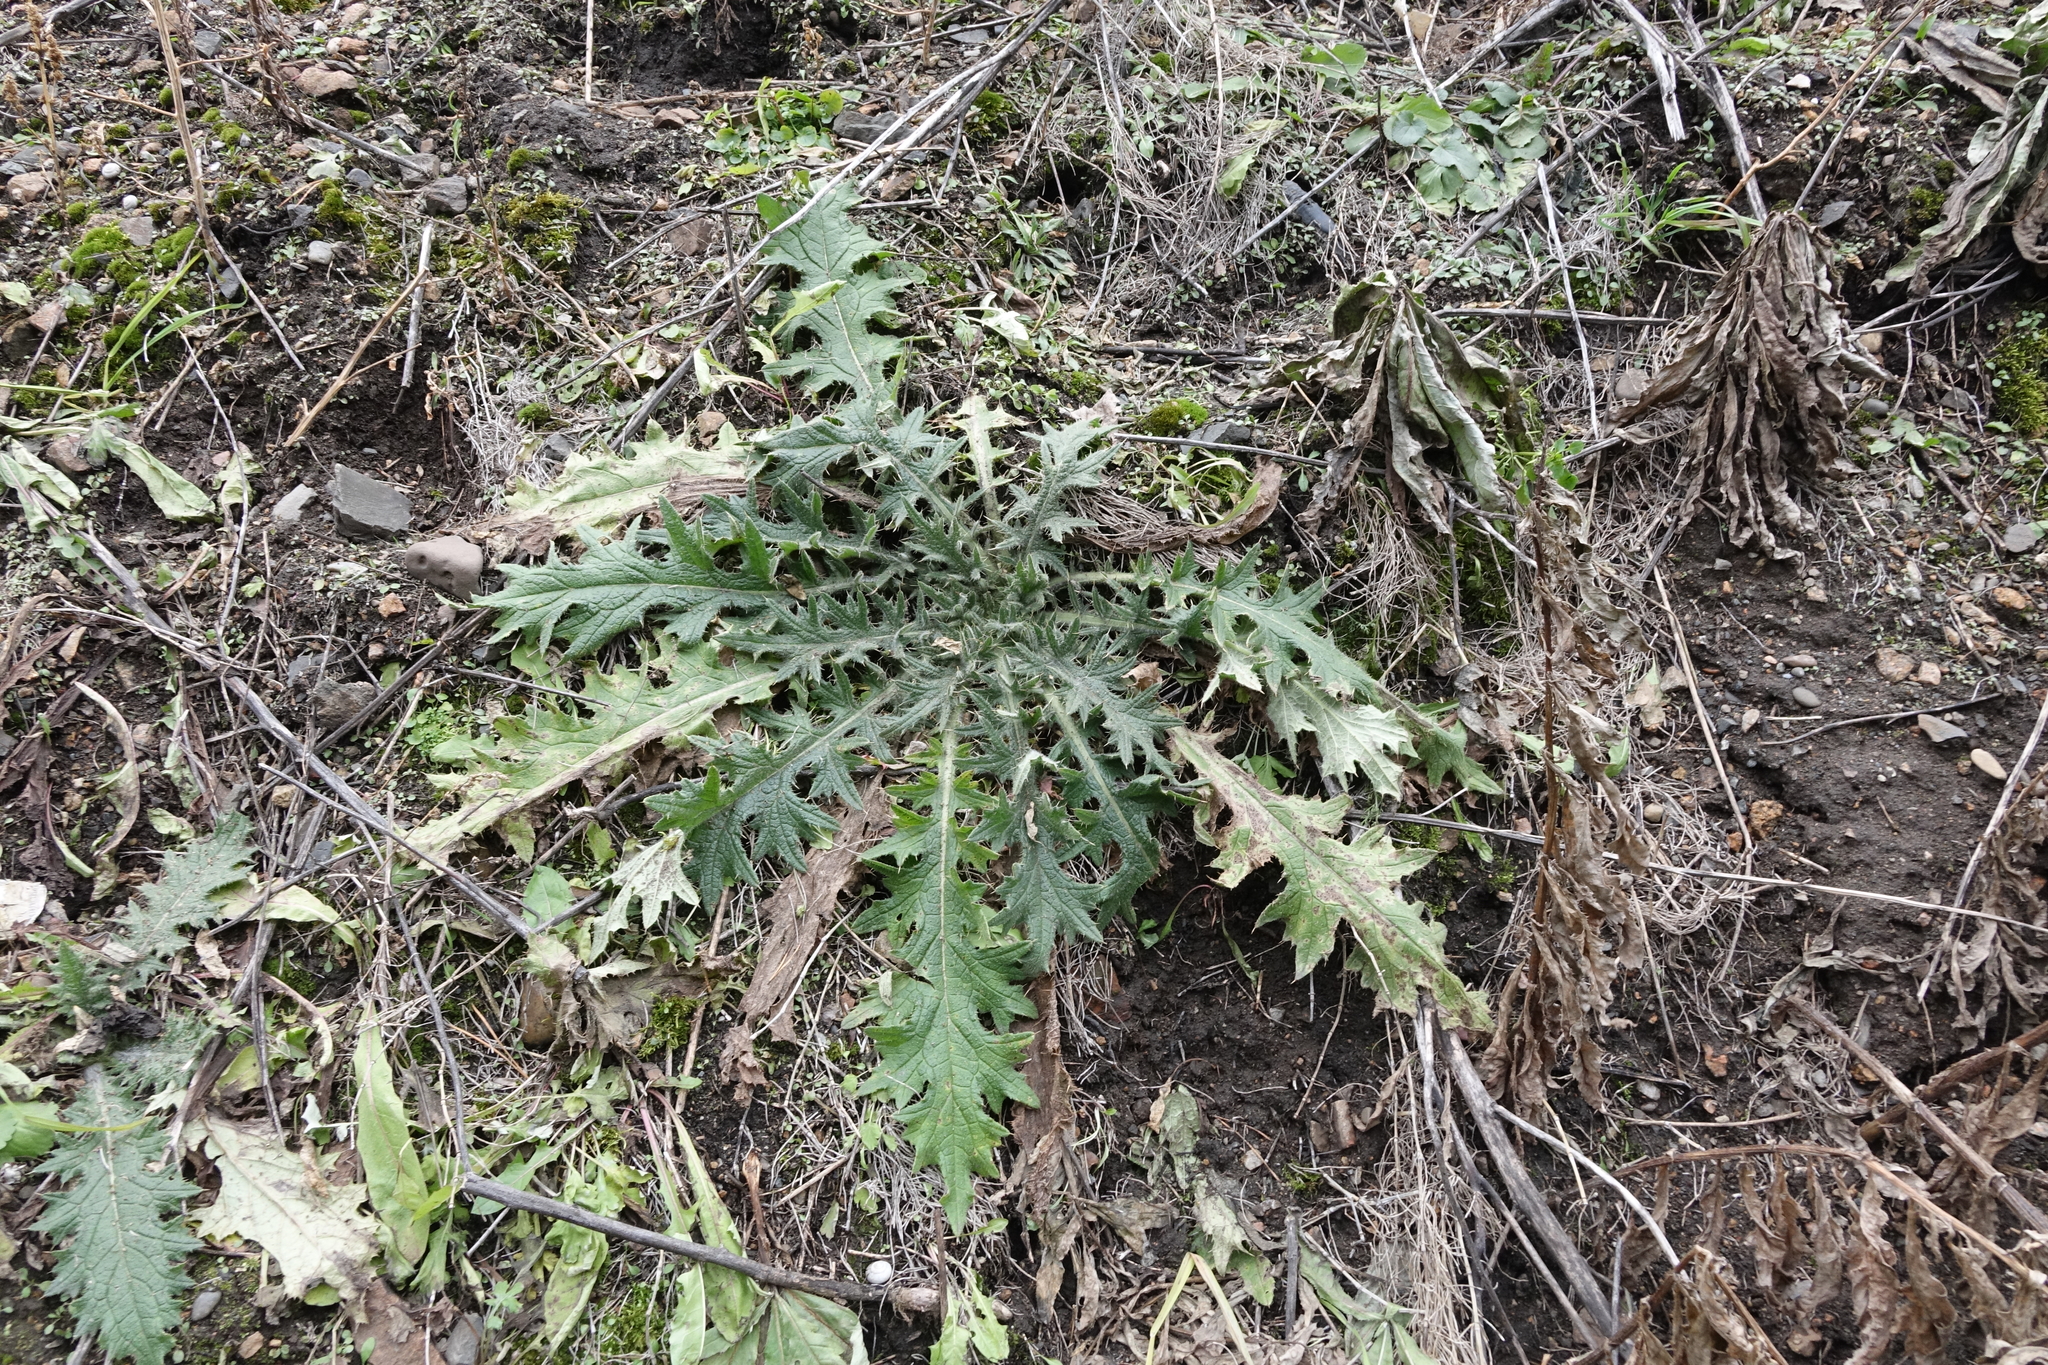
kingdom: Plantae
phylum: Tracheophyta
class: Magnoliopsida
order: Asterales
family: Asteraceae
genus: Cirsium
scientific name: Cirsium vulgare
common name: Bull thistle
